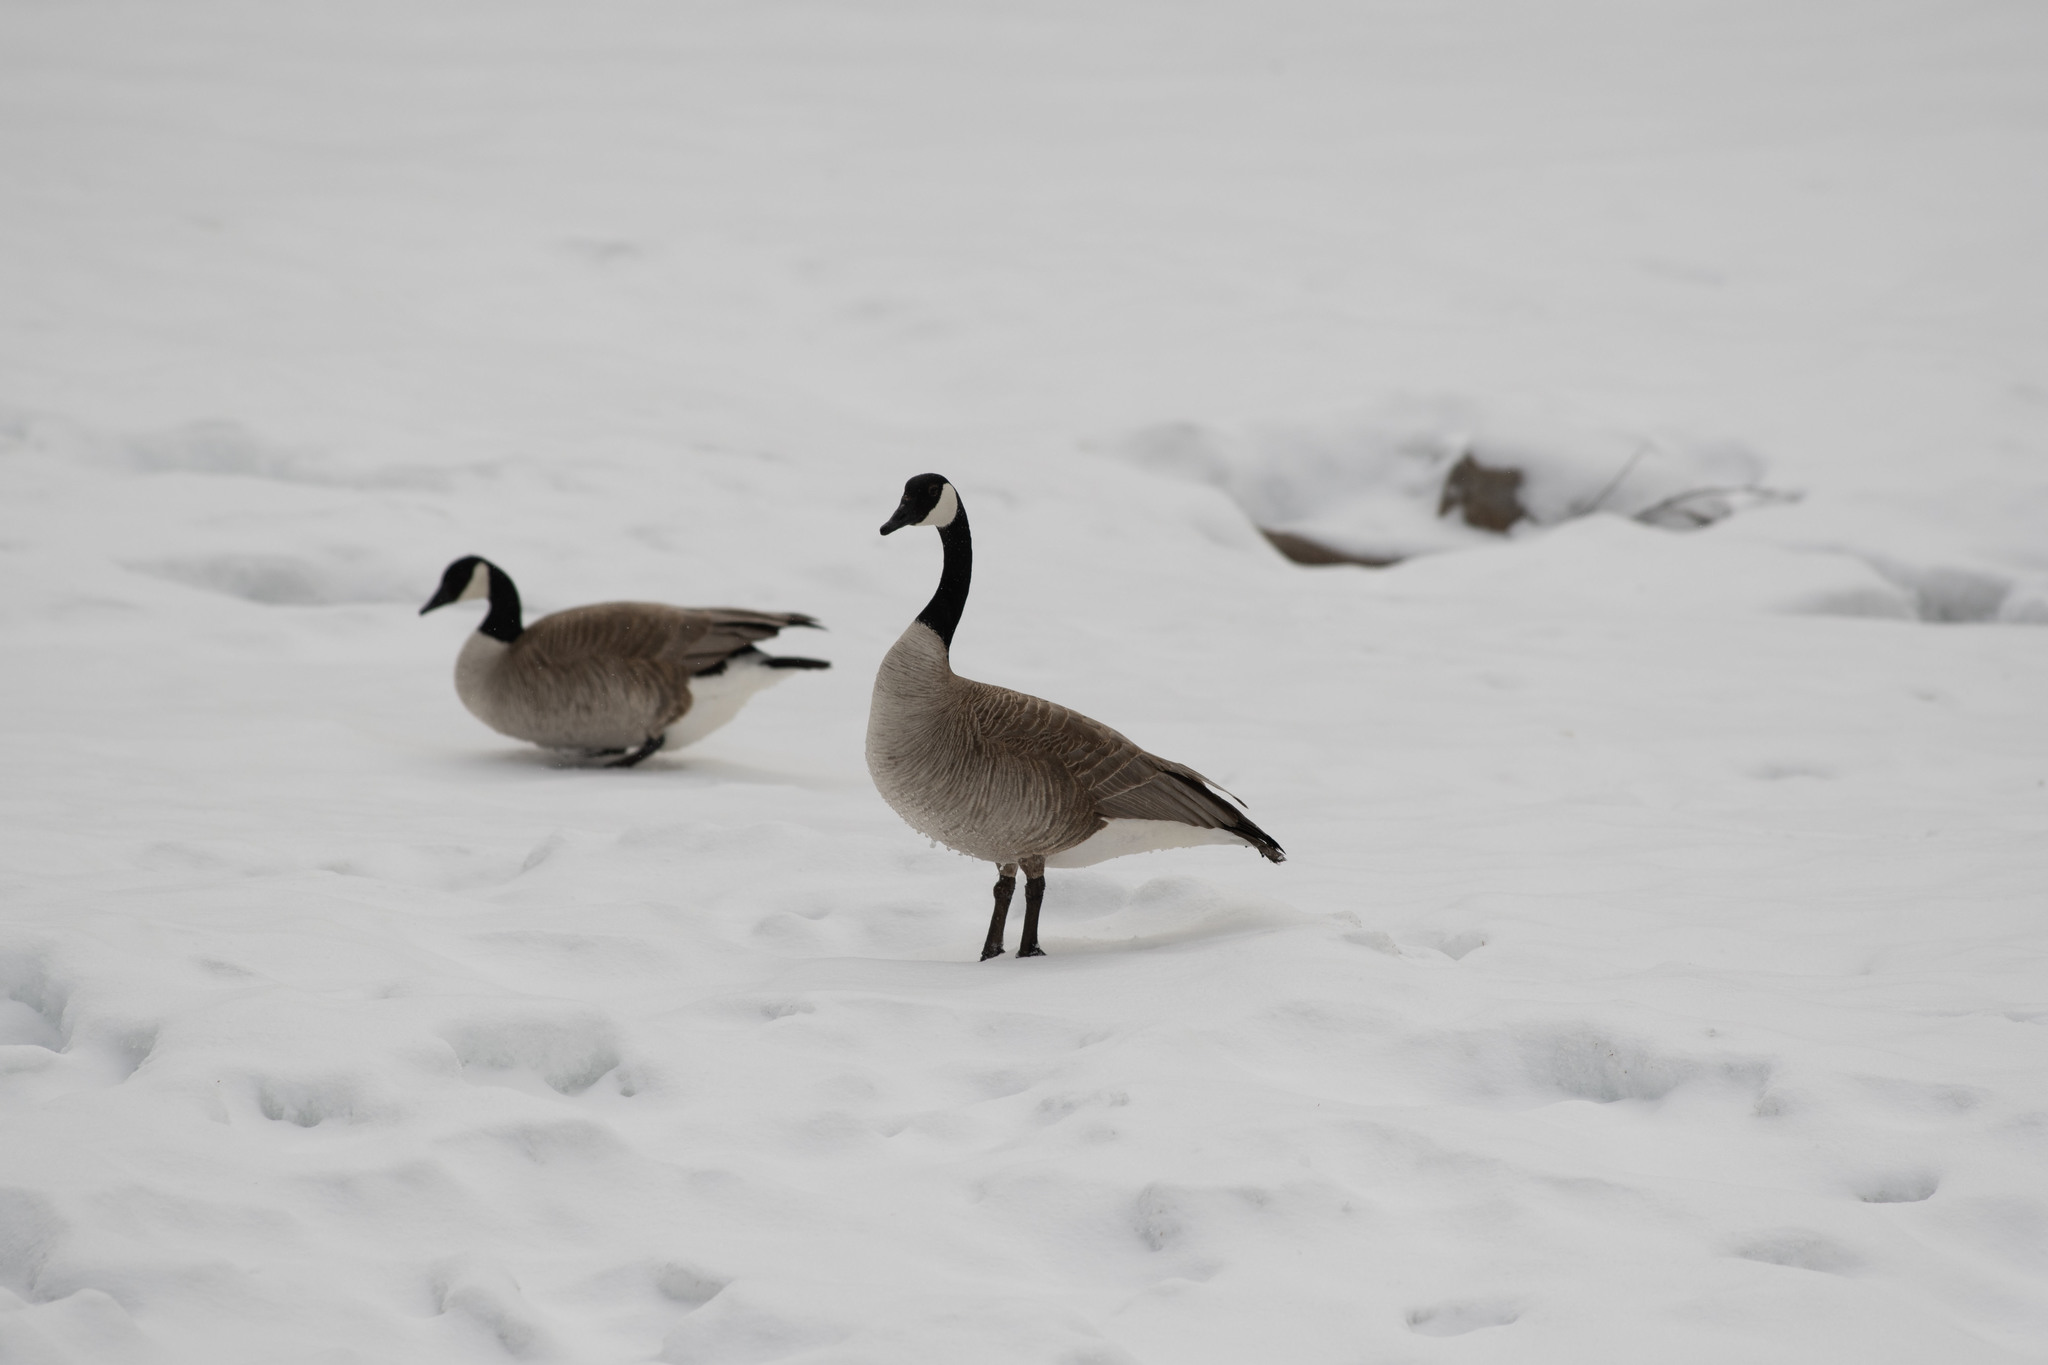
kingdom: Animalia
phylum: Chordata
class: Aves
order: Anseriformes
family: Anatidae
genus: Branta
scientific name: Branta canadensis
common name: Canada goose
